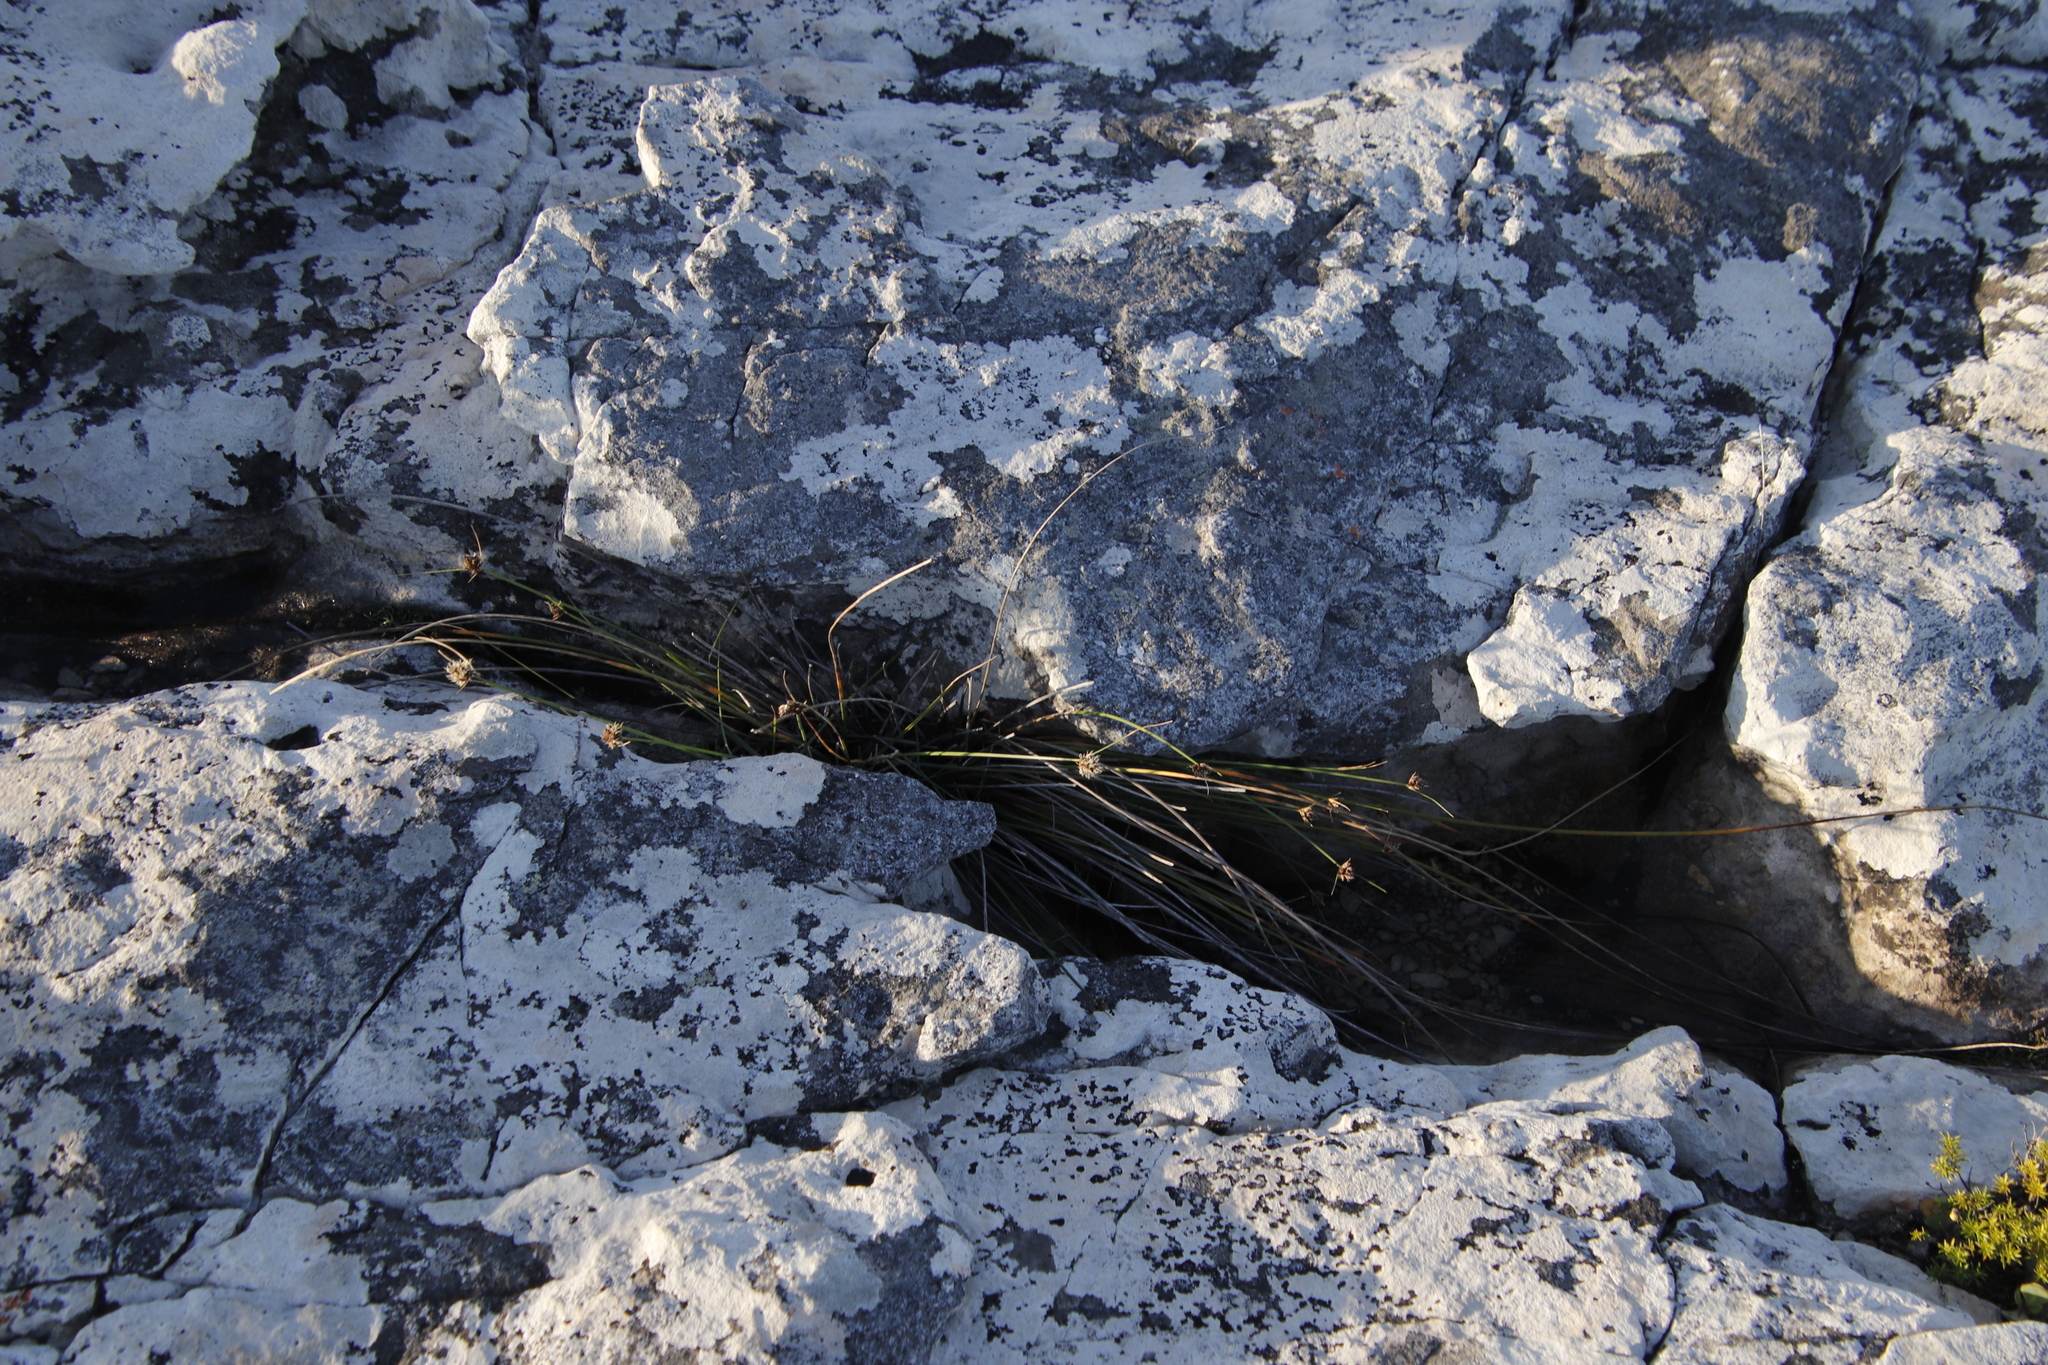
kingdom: Plantae
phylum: Tracheophyta
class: Liliopsida
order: Poales
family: Cyperaceae
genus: Ficinia
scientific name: Ficinia brevifolia
